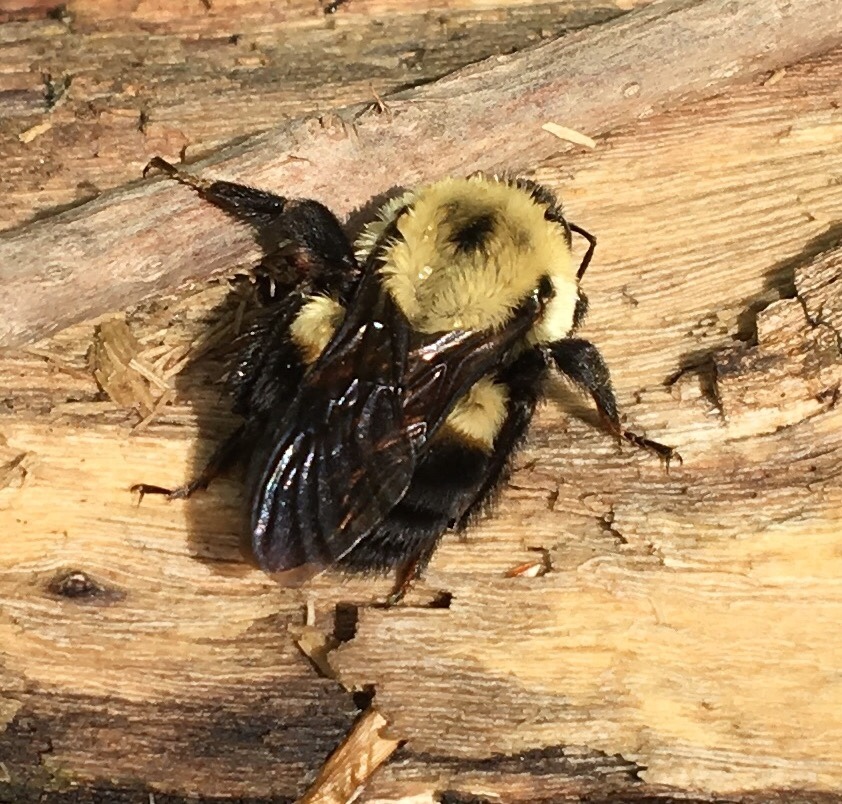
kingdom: Animalia
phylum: Arthropoda
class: Insecta
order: Hymenoptera
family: Apidae
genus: Bombus
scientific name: Bombus griseocollis
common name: Brown-belted bumble bee
